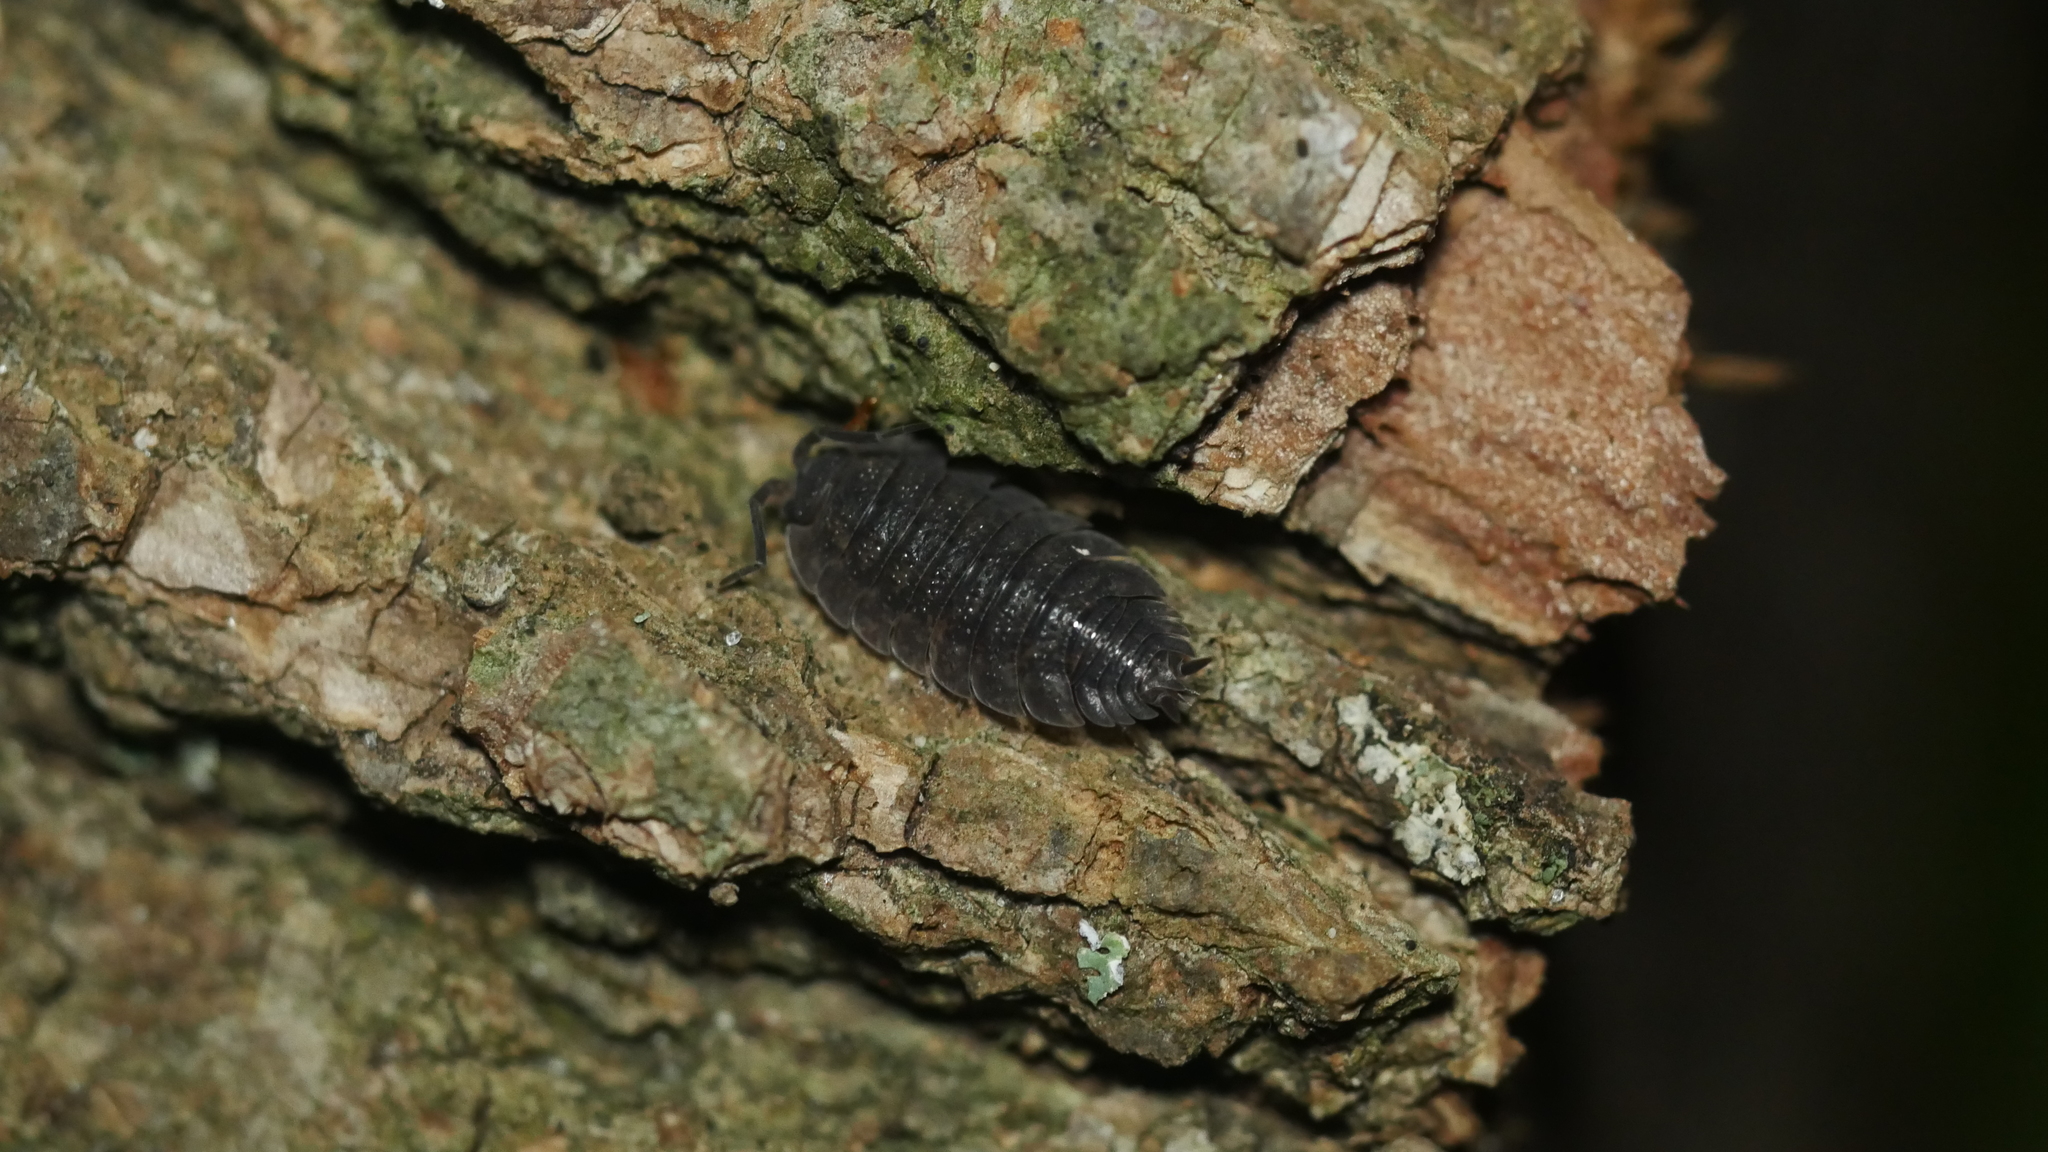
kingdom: Animalia
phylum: Arthropoda
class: Malacostraca
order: Isopoda
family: Porcellionidae
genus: Porcellio
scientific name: Porcellio scaber
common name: Common rough woodlouse
